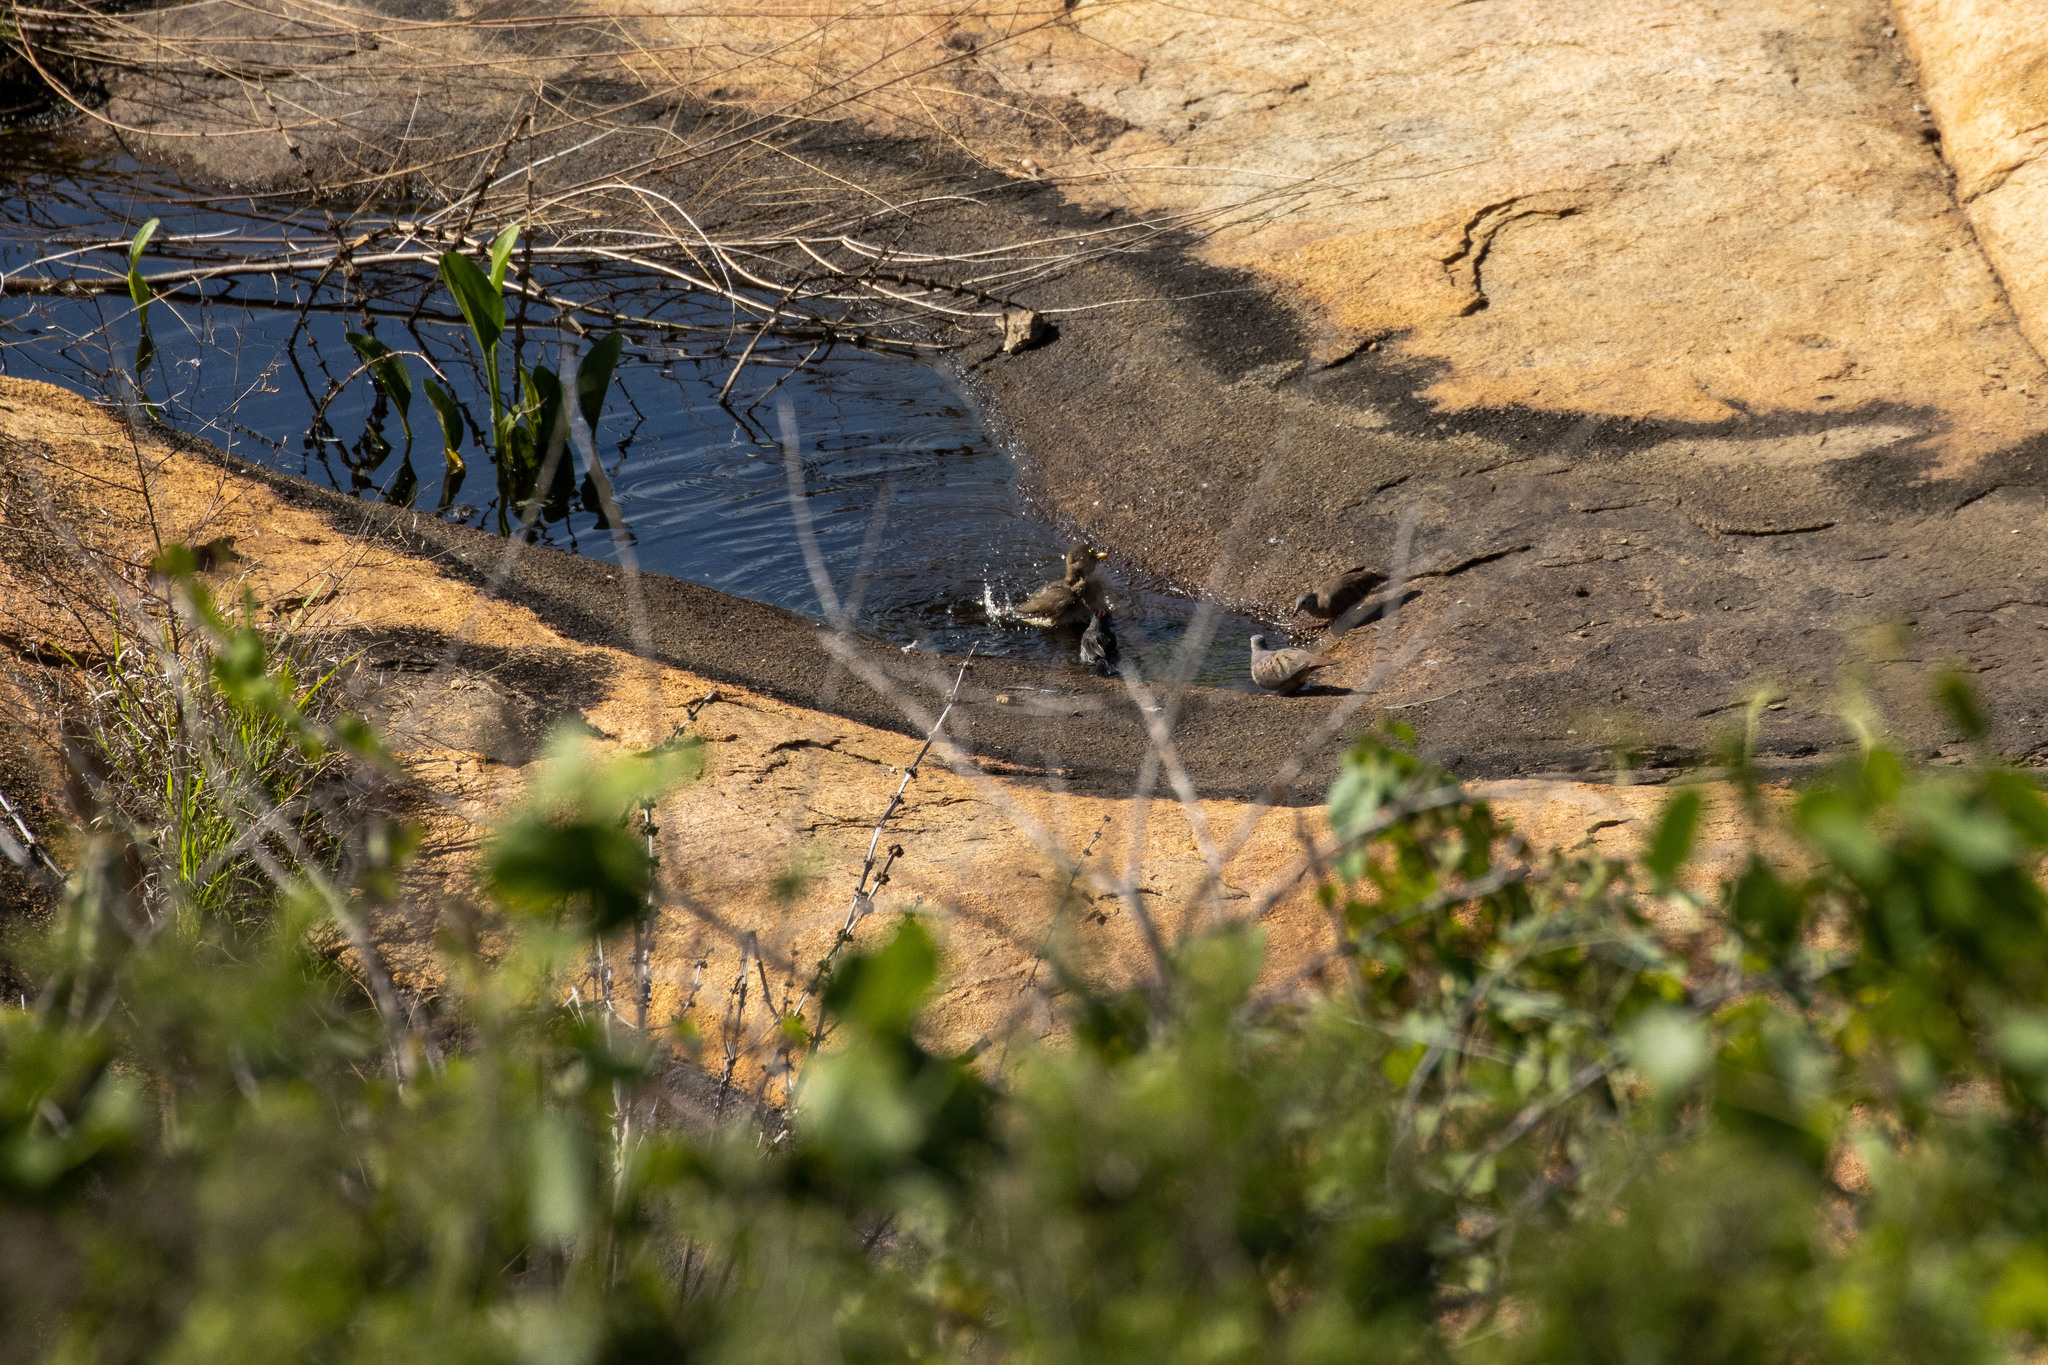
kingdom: Animalia
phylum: Chordata
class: Aves
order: Passeriformes
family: Turdidae
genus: Turdus
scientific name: Turdus amaurochalinus
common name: Creamy-bellied thrush
